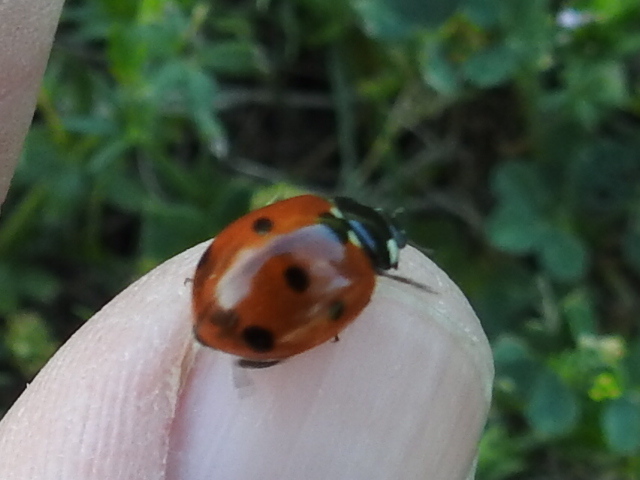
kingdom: Animalia
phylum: Arthropoda
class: Insecta
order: Coleoptera
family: Coccinellidae
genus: Coccinella
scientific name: Coccinella septempunctata
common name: Sevenspotted lady beetle
